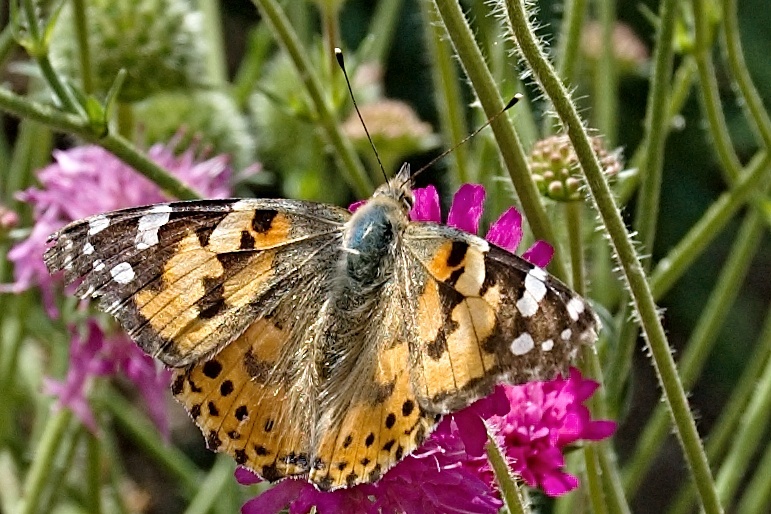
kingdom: Animalia
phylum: Arthropoda
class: Insecta
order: Lepidoptera
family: Nymphalidae
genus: Vanessa
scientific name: Vanessa cardui
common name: Painted lady
